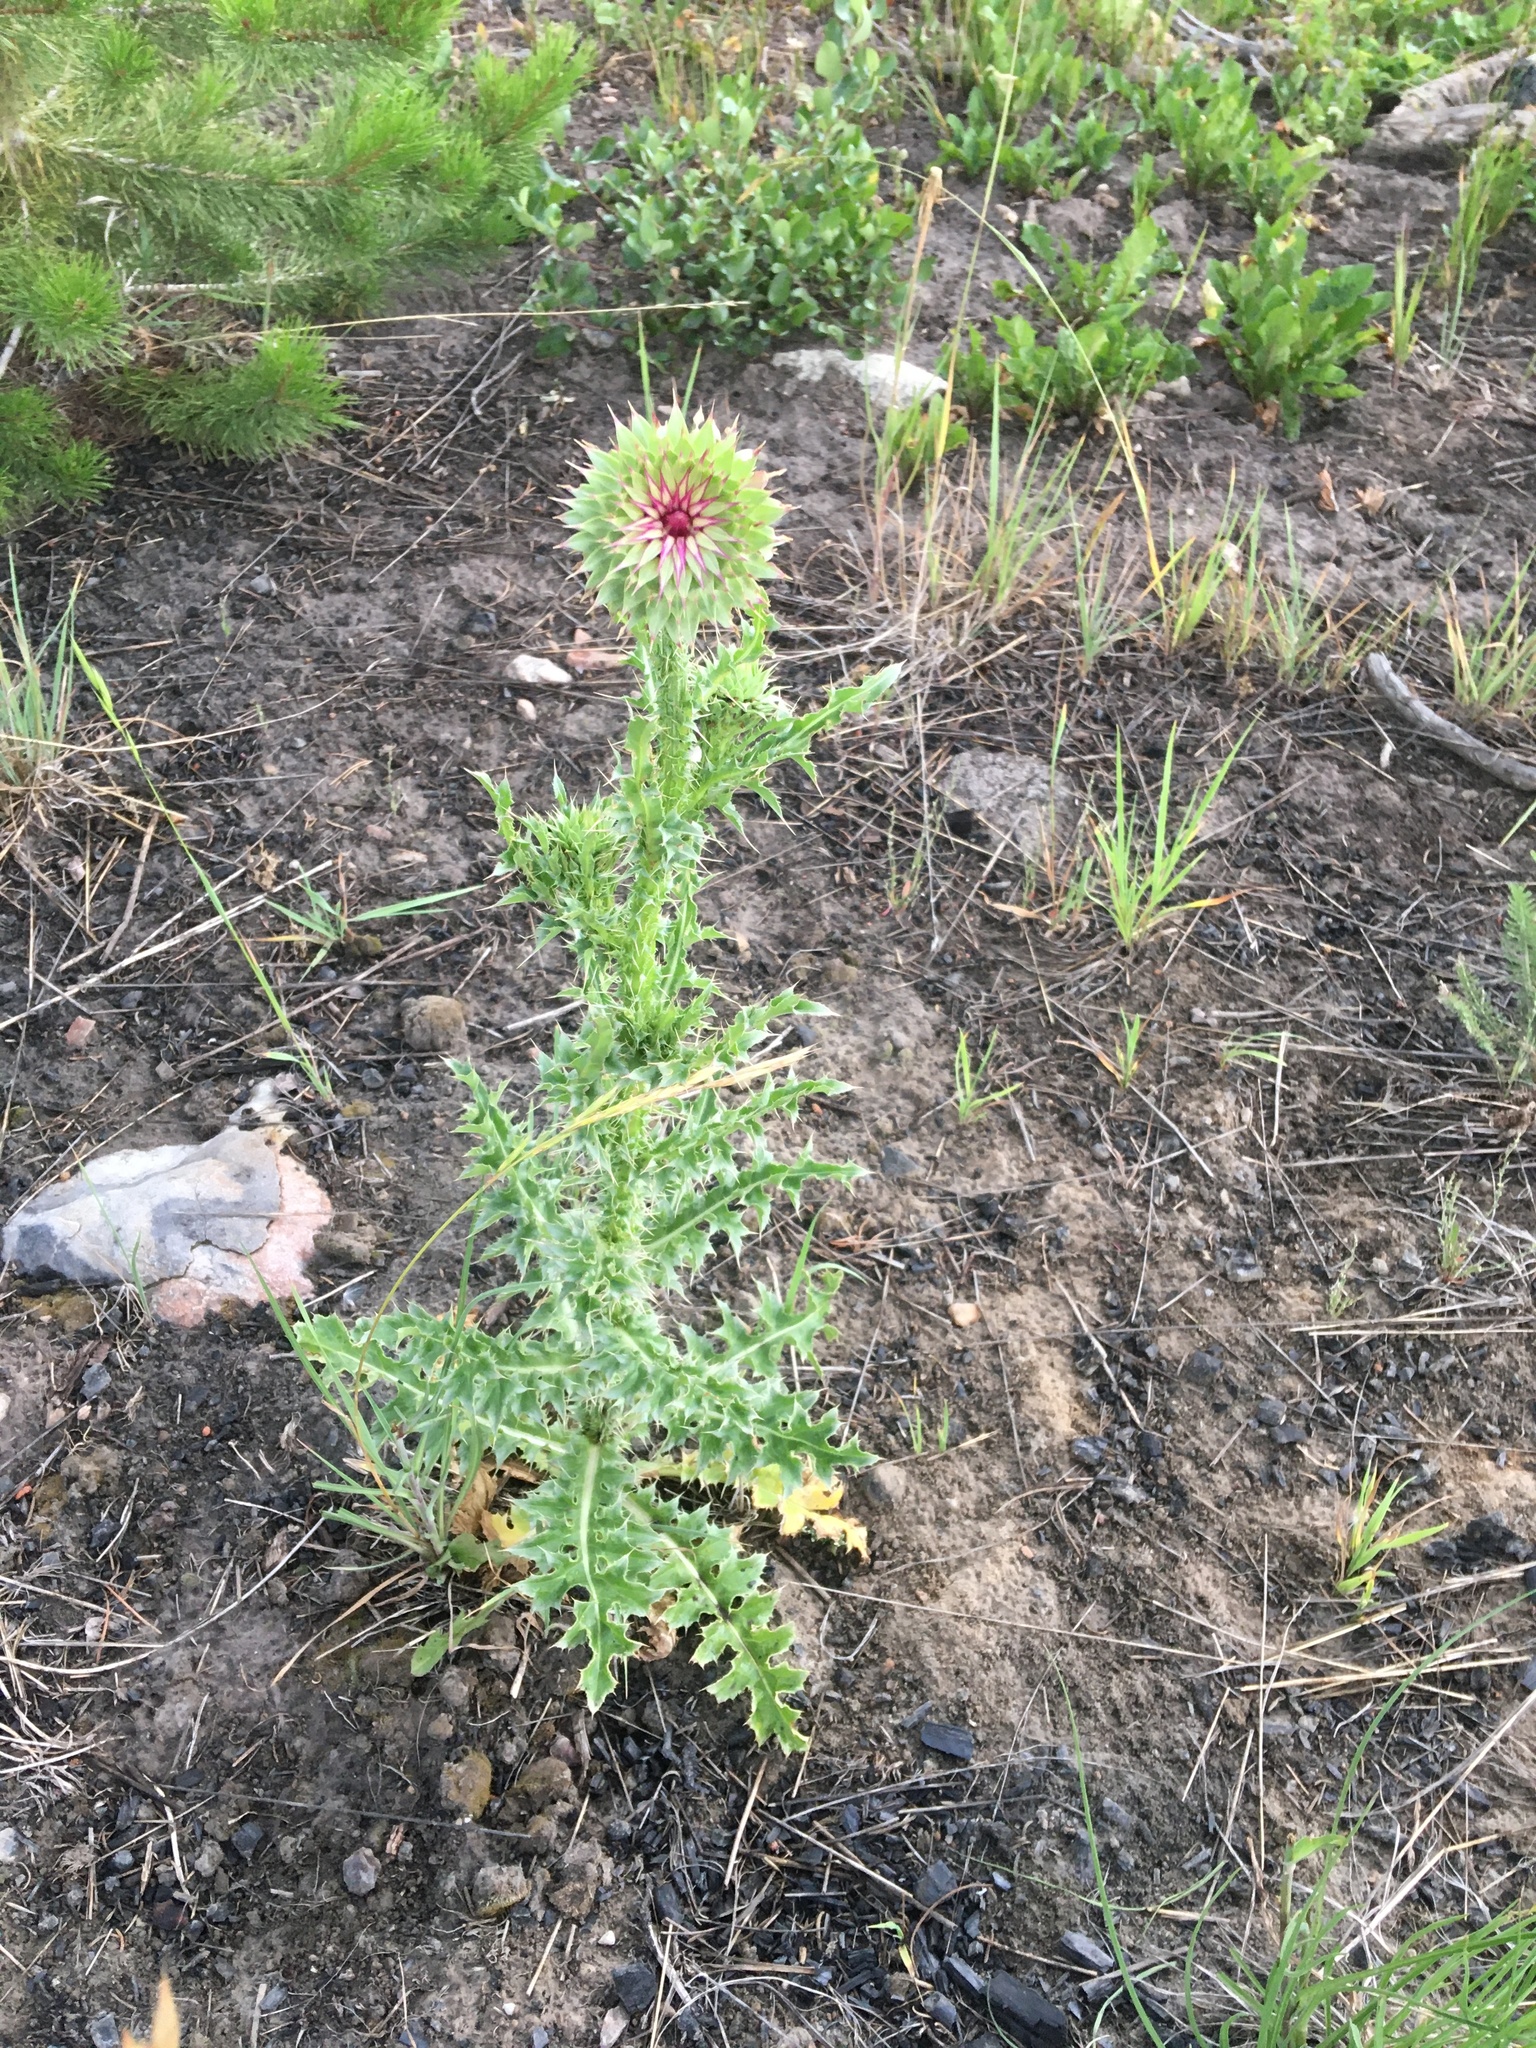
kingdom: Plantae
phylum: Tracheophyta
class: Magnoliopsida
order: Asterales
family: Asteraceae
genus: Carduus
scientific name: Carduus nutans
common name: Musk thistle
